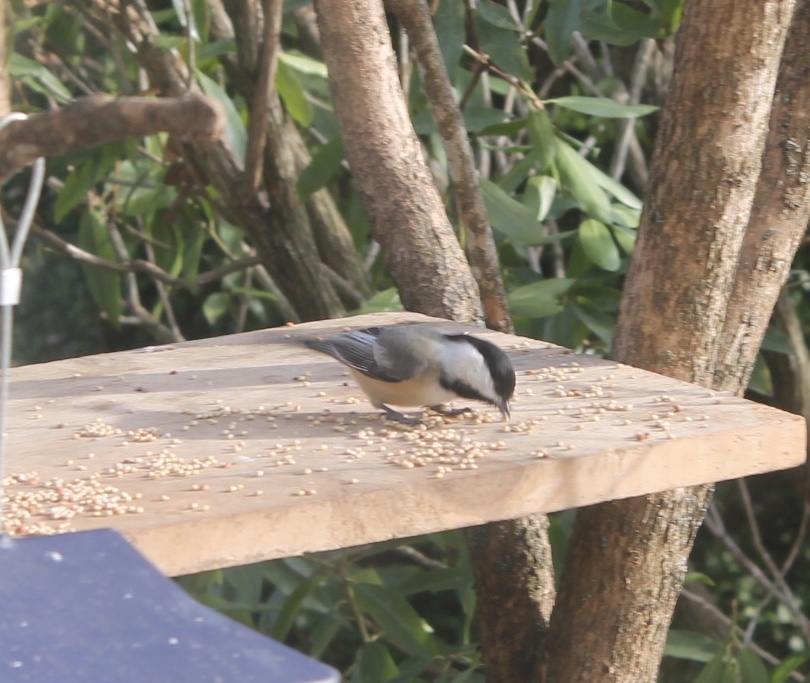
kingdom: Animalia
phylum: Chordata
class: Aves
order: Passeriformes
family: Paridae
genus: Poecile
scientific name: Poecile atricapillus
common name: Black-capped chickadee
